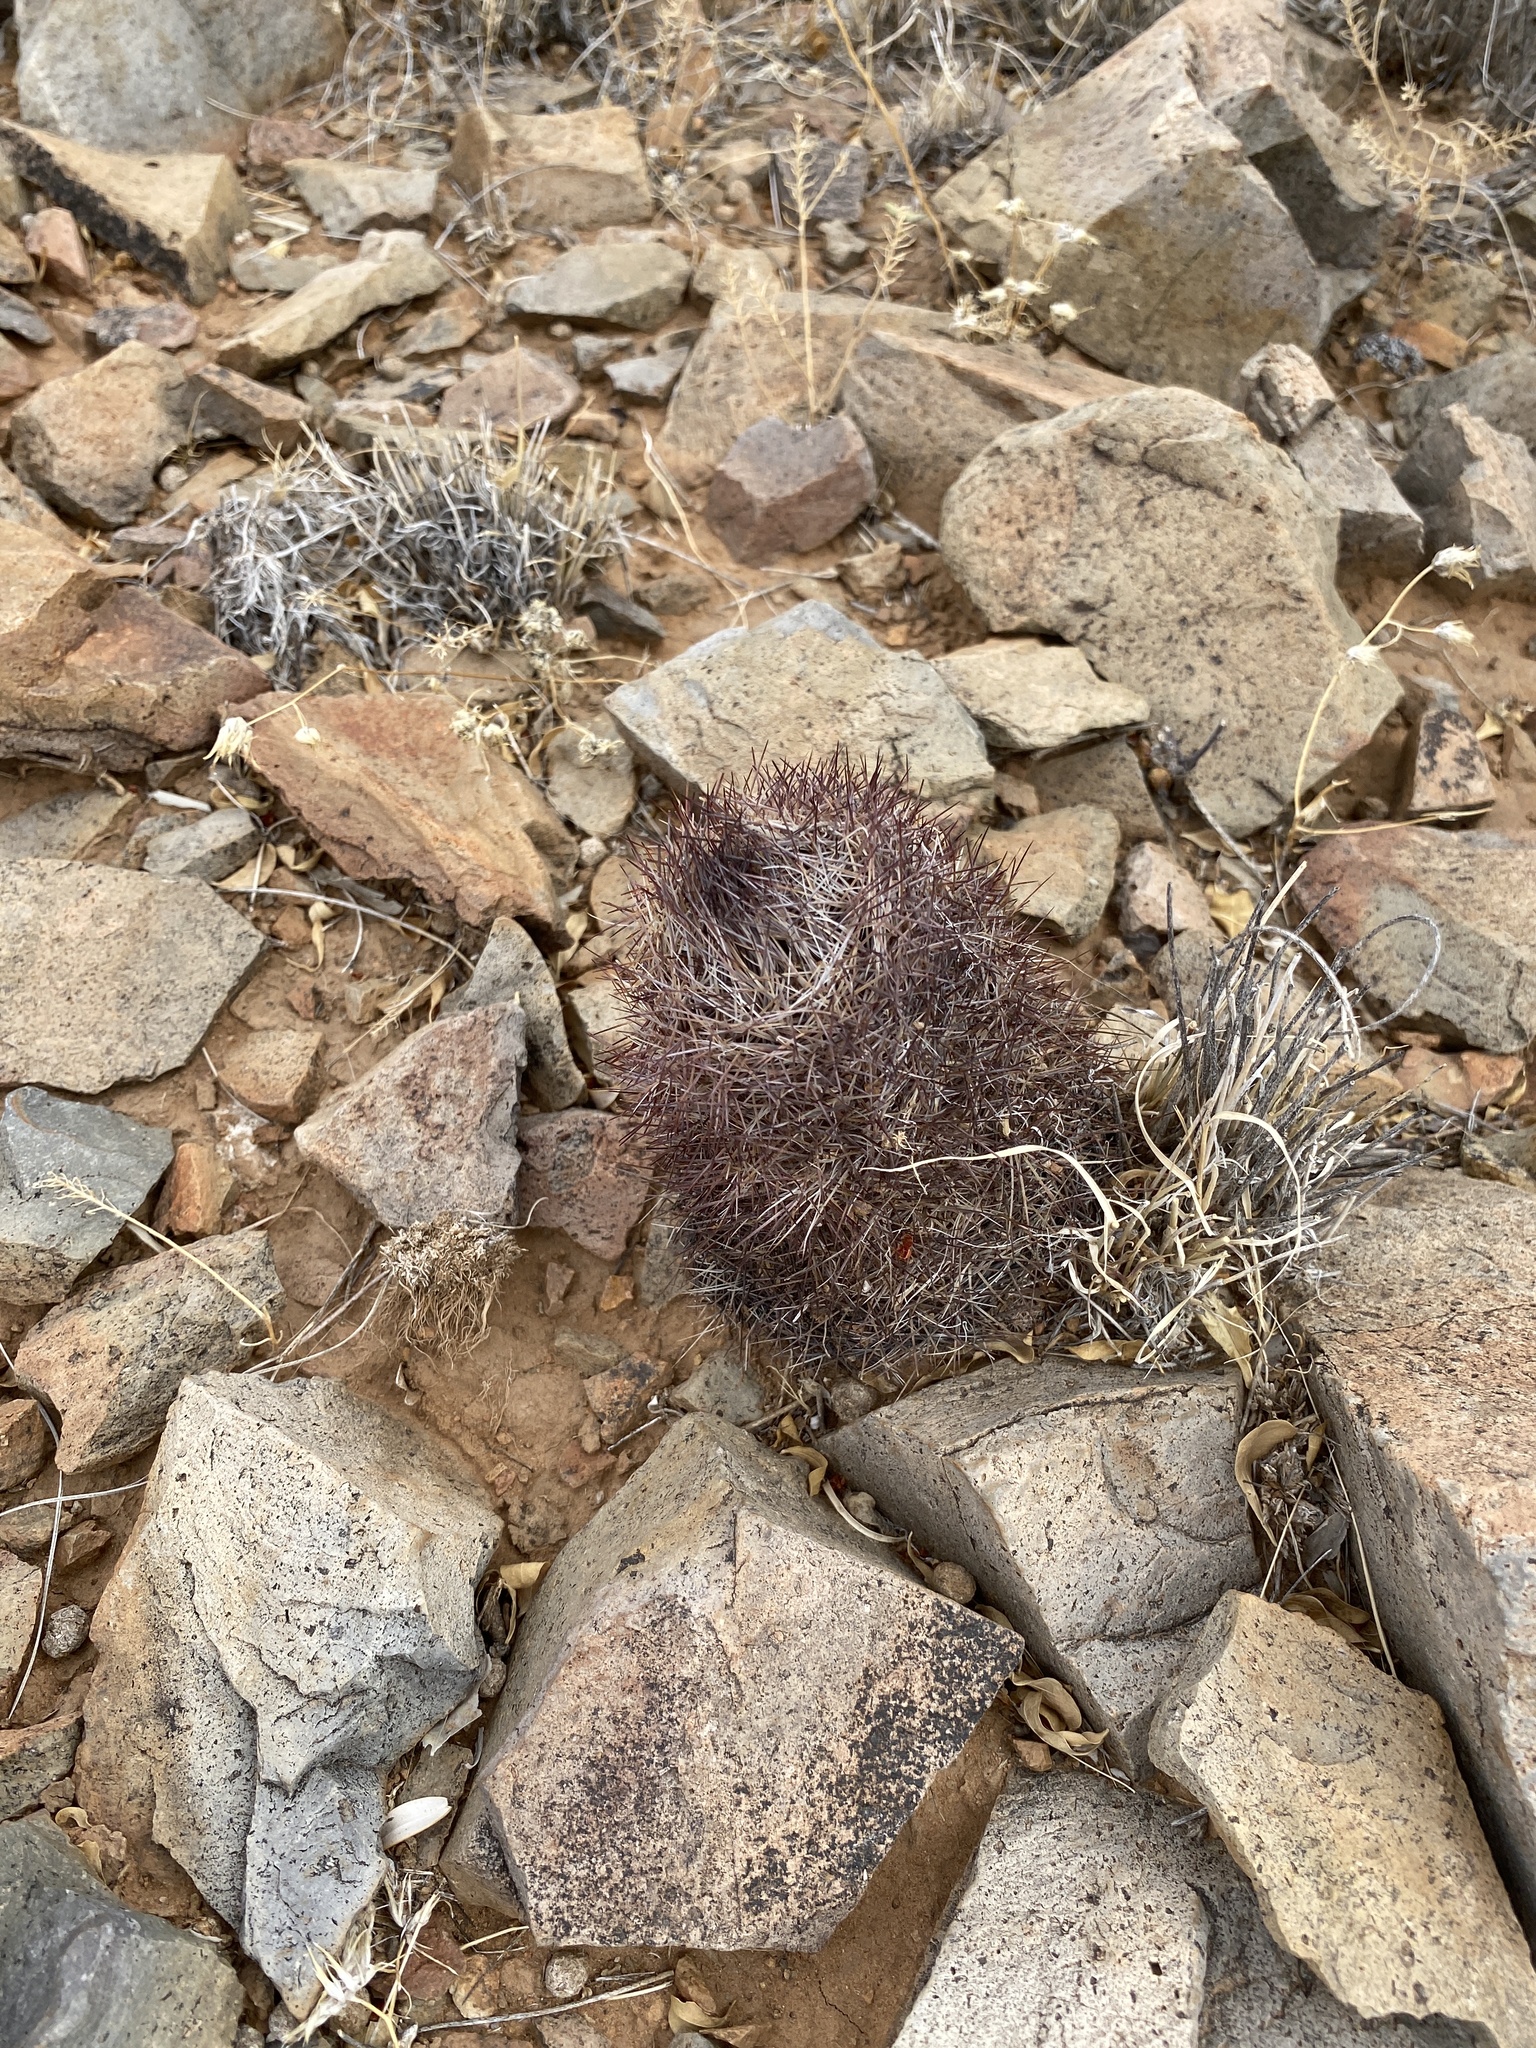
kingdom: Plantae
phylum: Tracheophyta
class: Magnoliopsida
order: Caryophyllales
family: Cactaceae
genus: Pelecyphora
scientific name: Pelecyphora vivipara
